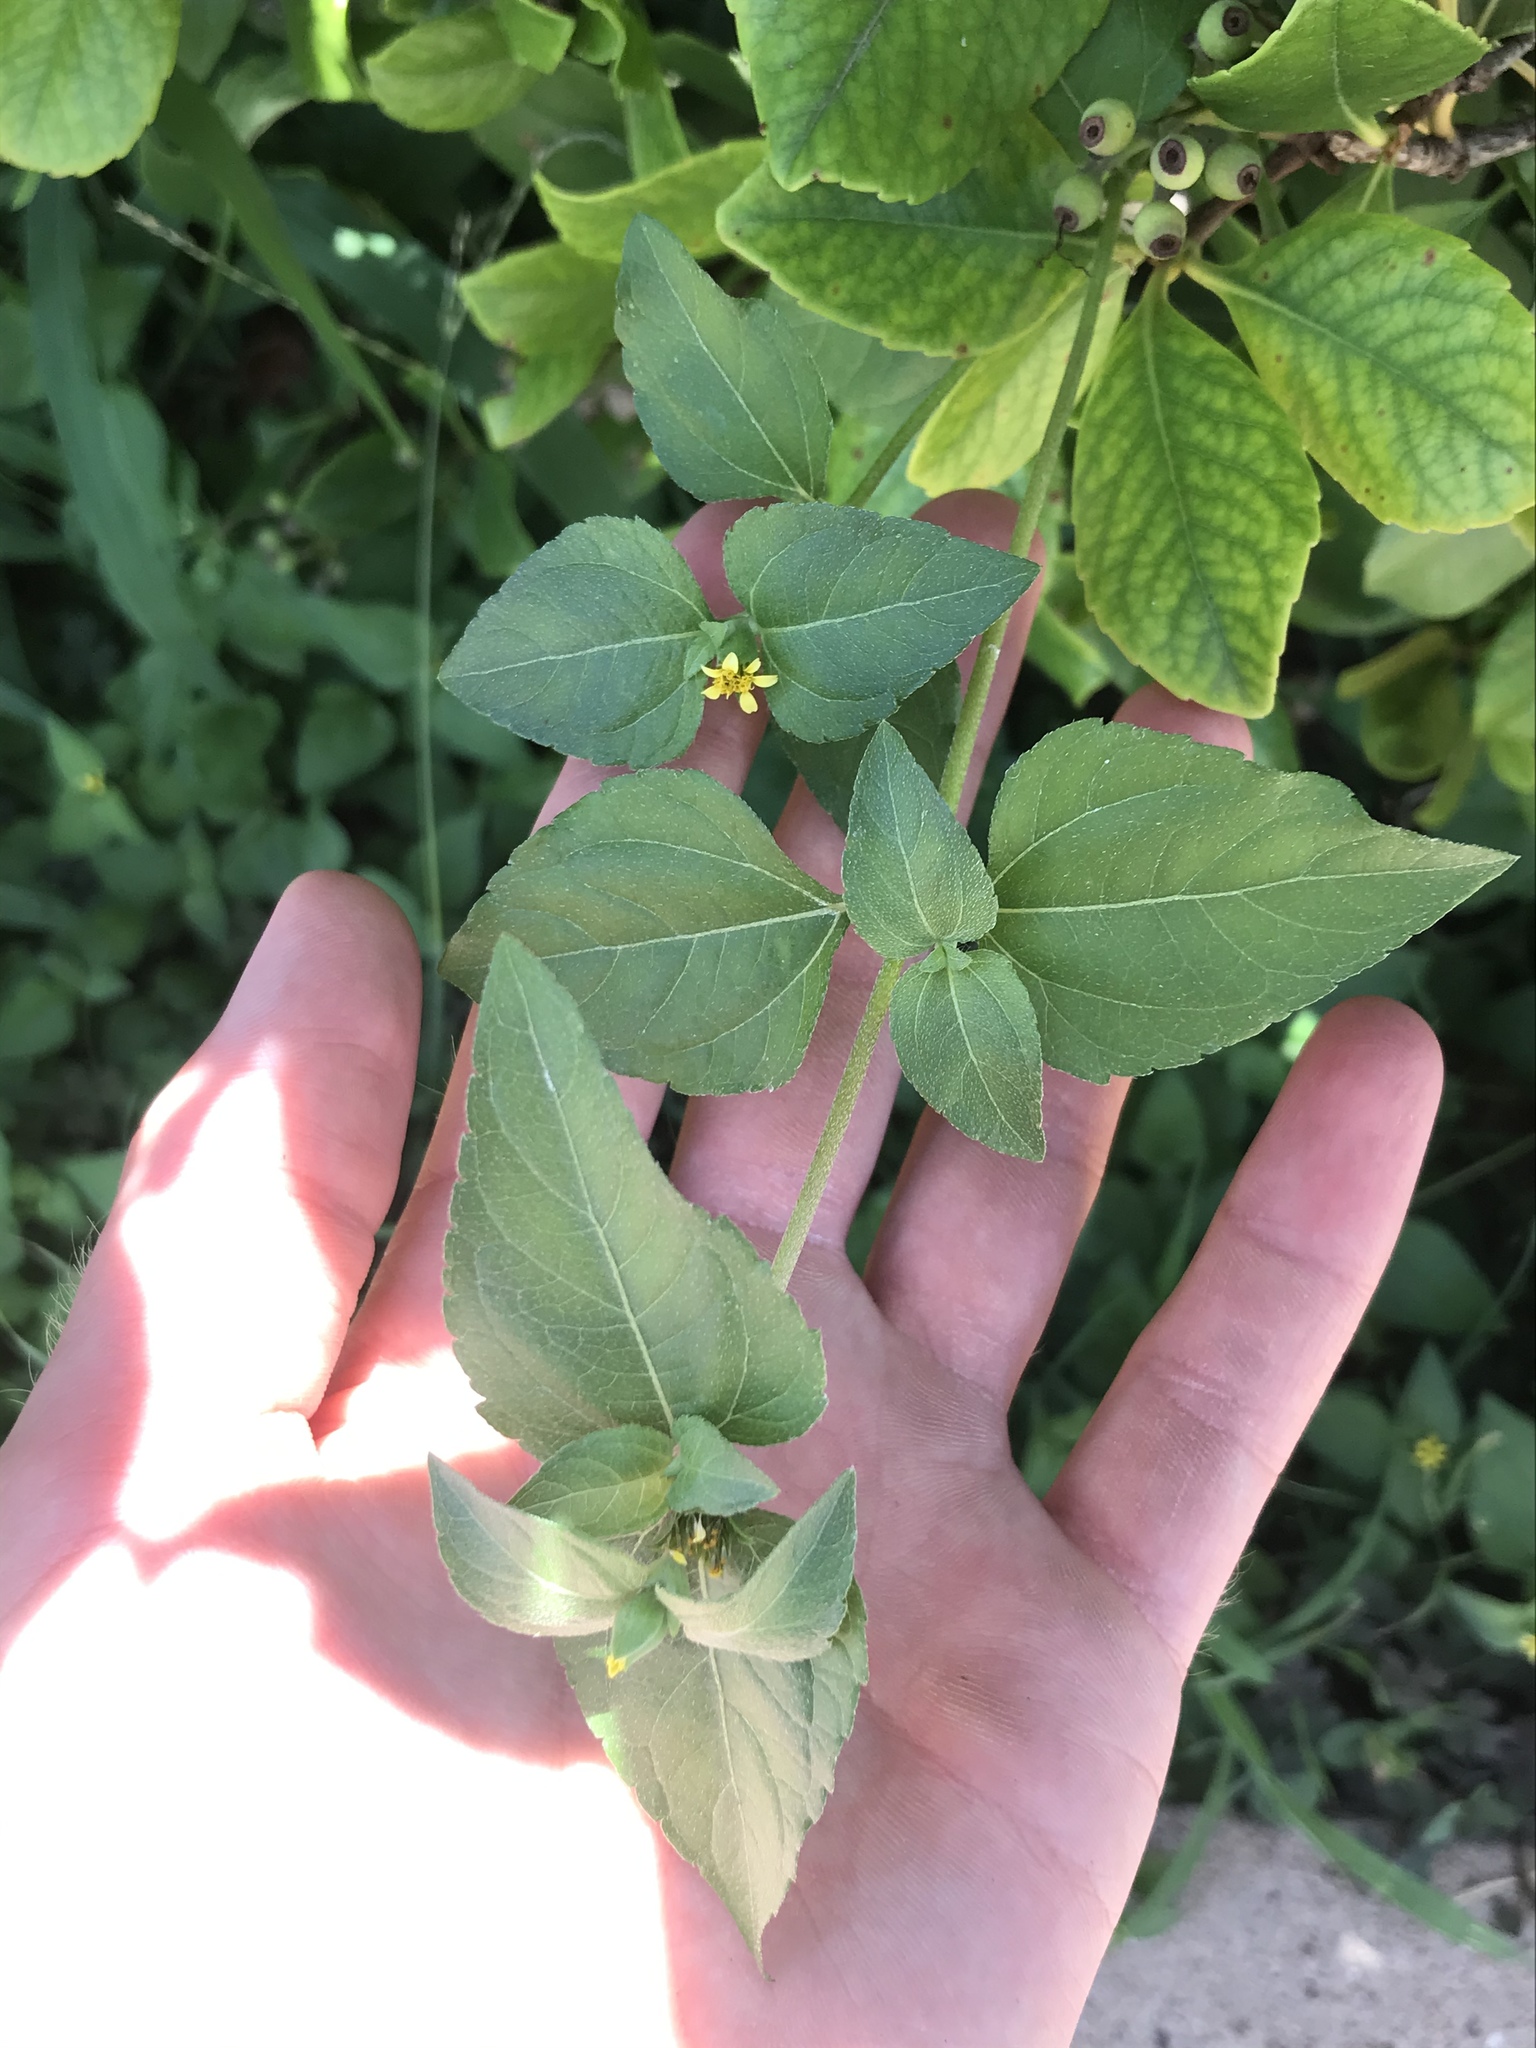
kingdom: Plantae
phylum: Tracheophyta
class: Magnoliopsida
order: Asterales
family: Asteraceae
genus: Calyptocarpus
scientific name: Calyptocarpus vialis
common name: Straggler daisy
